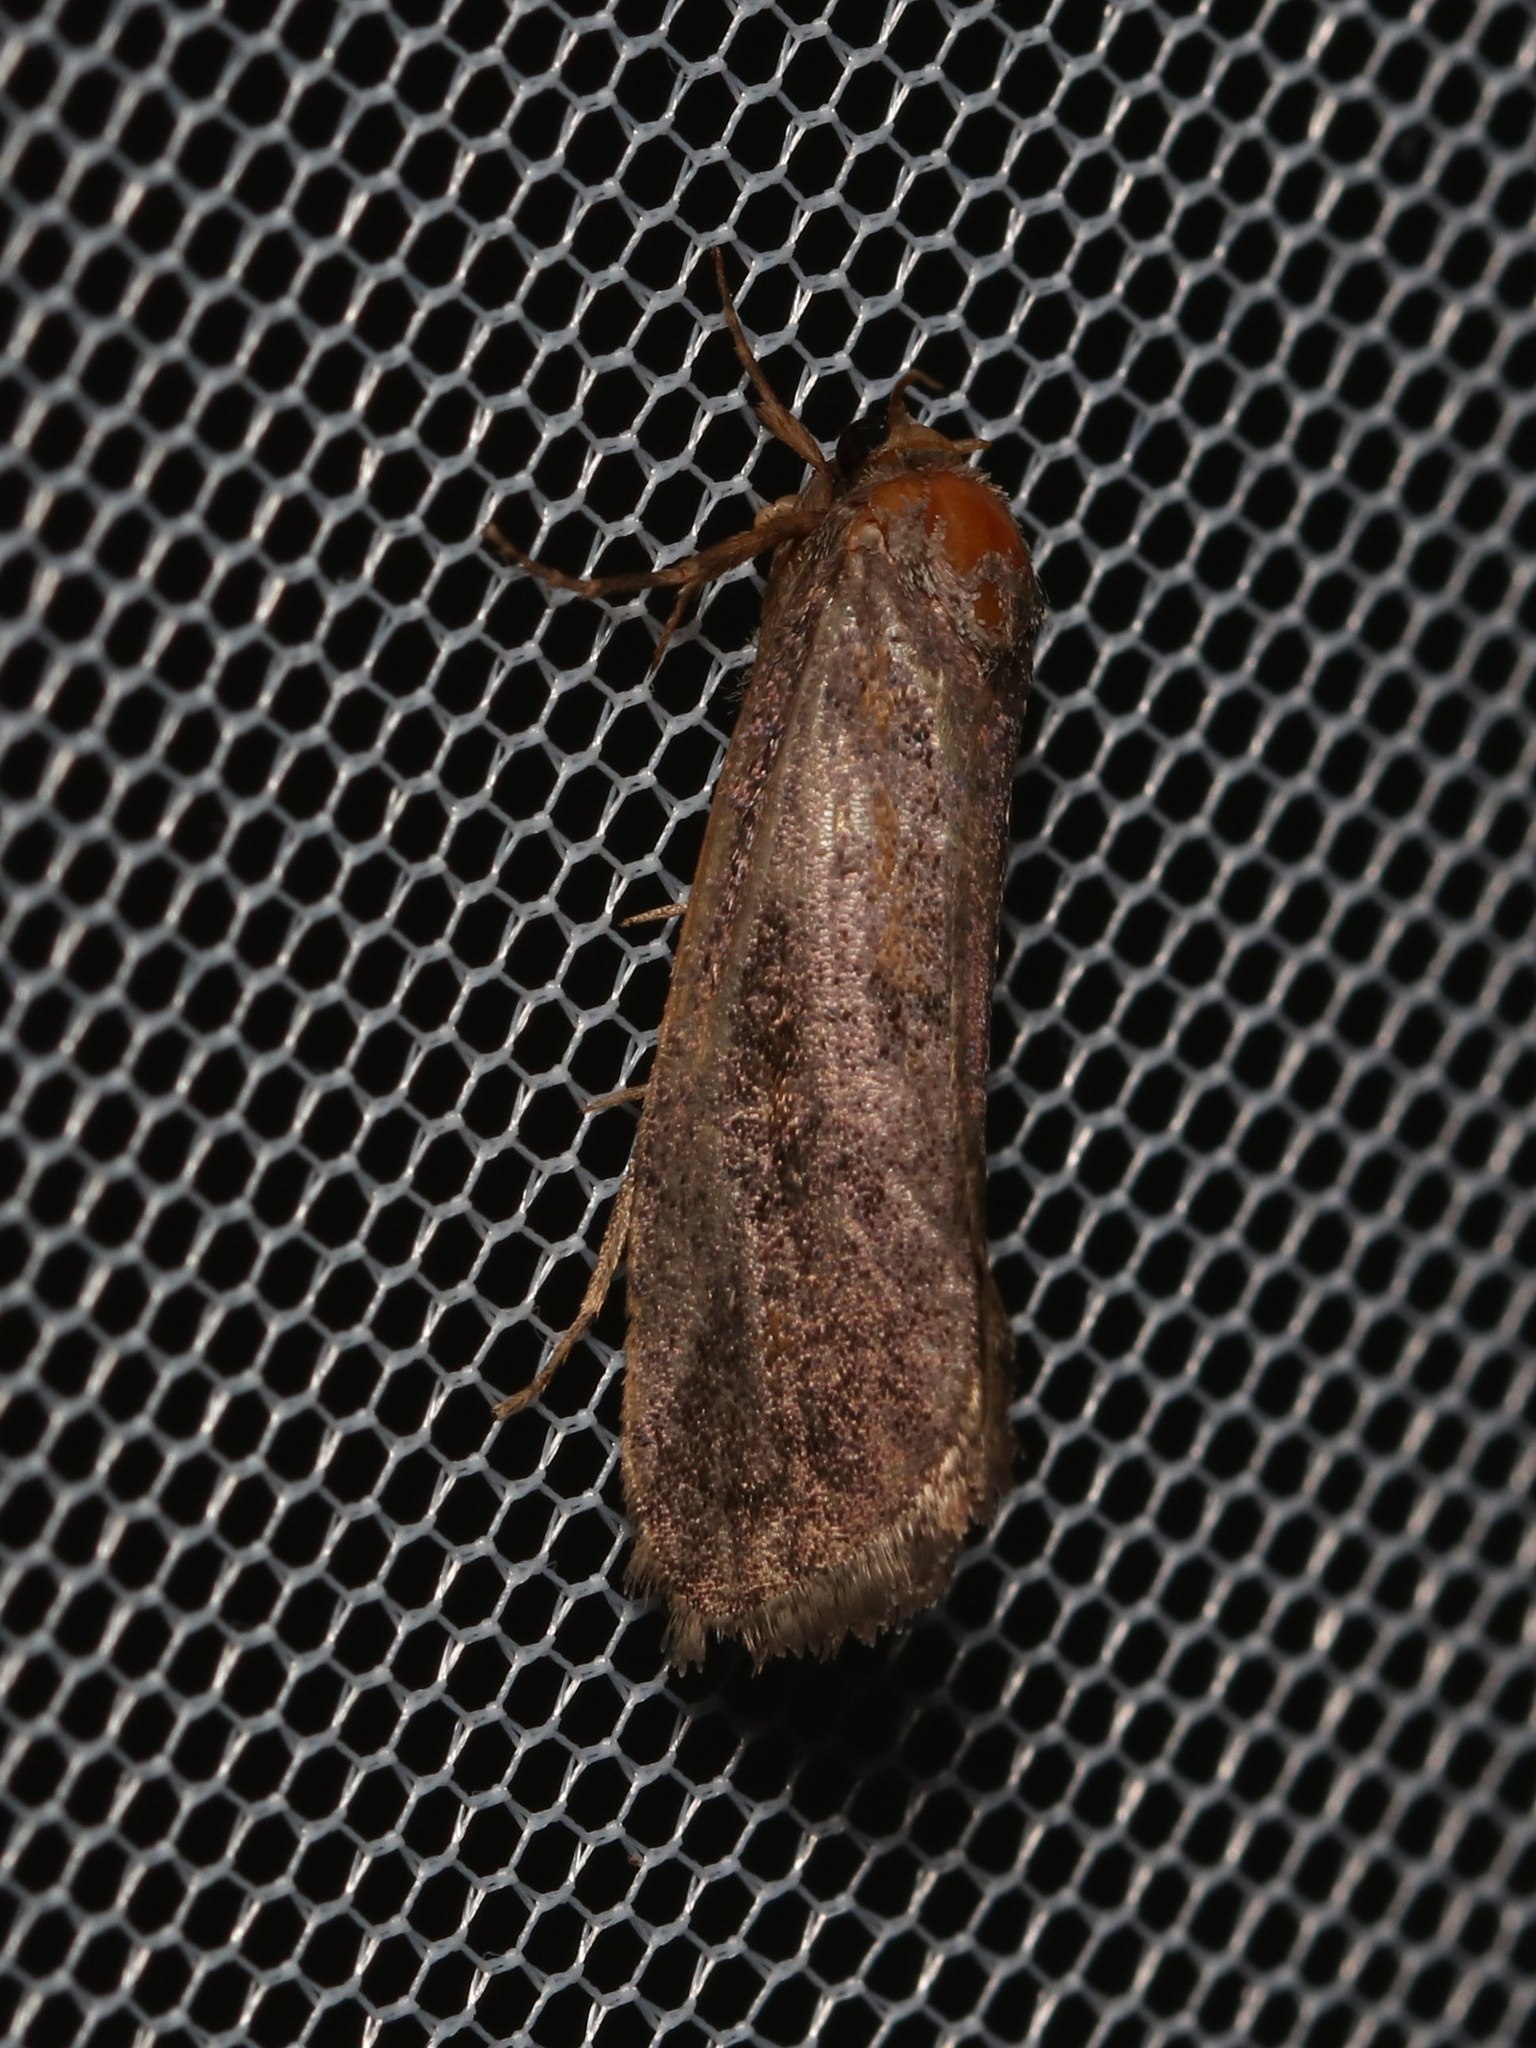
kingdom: Animalia
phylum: Arthropoda
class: Insecta
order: Lepidoptera
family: Tineidae
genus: Acrolophus
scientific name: Acrolophus propinqua
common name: Walsingham's grass tubeworm moth
